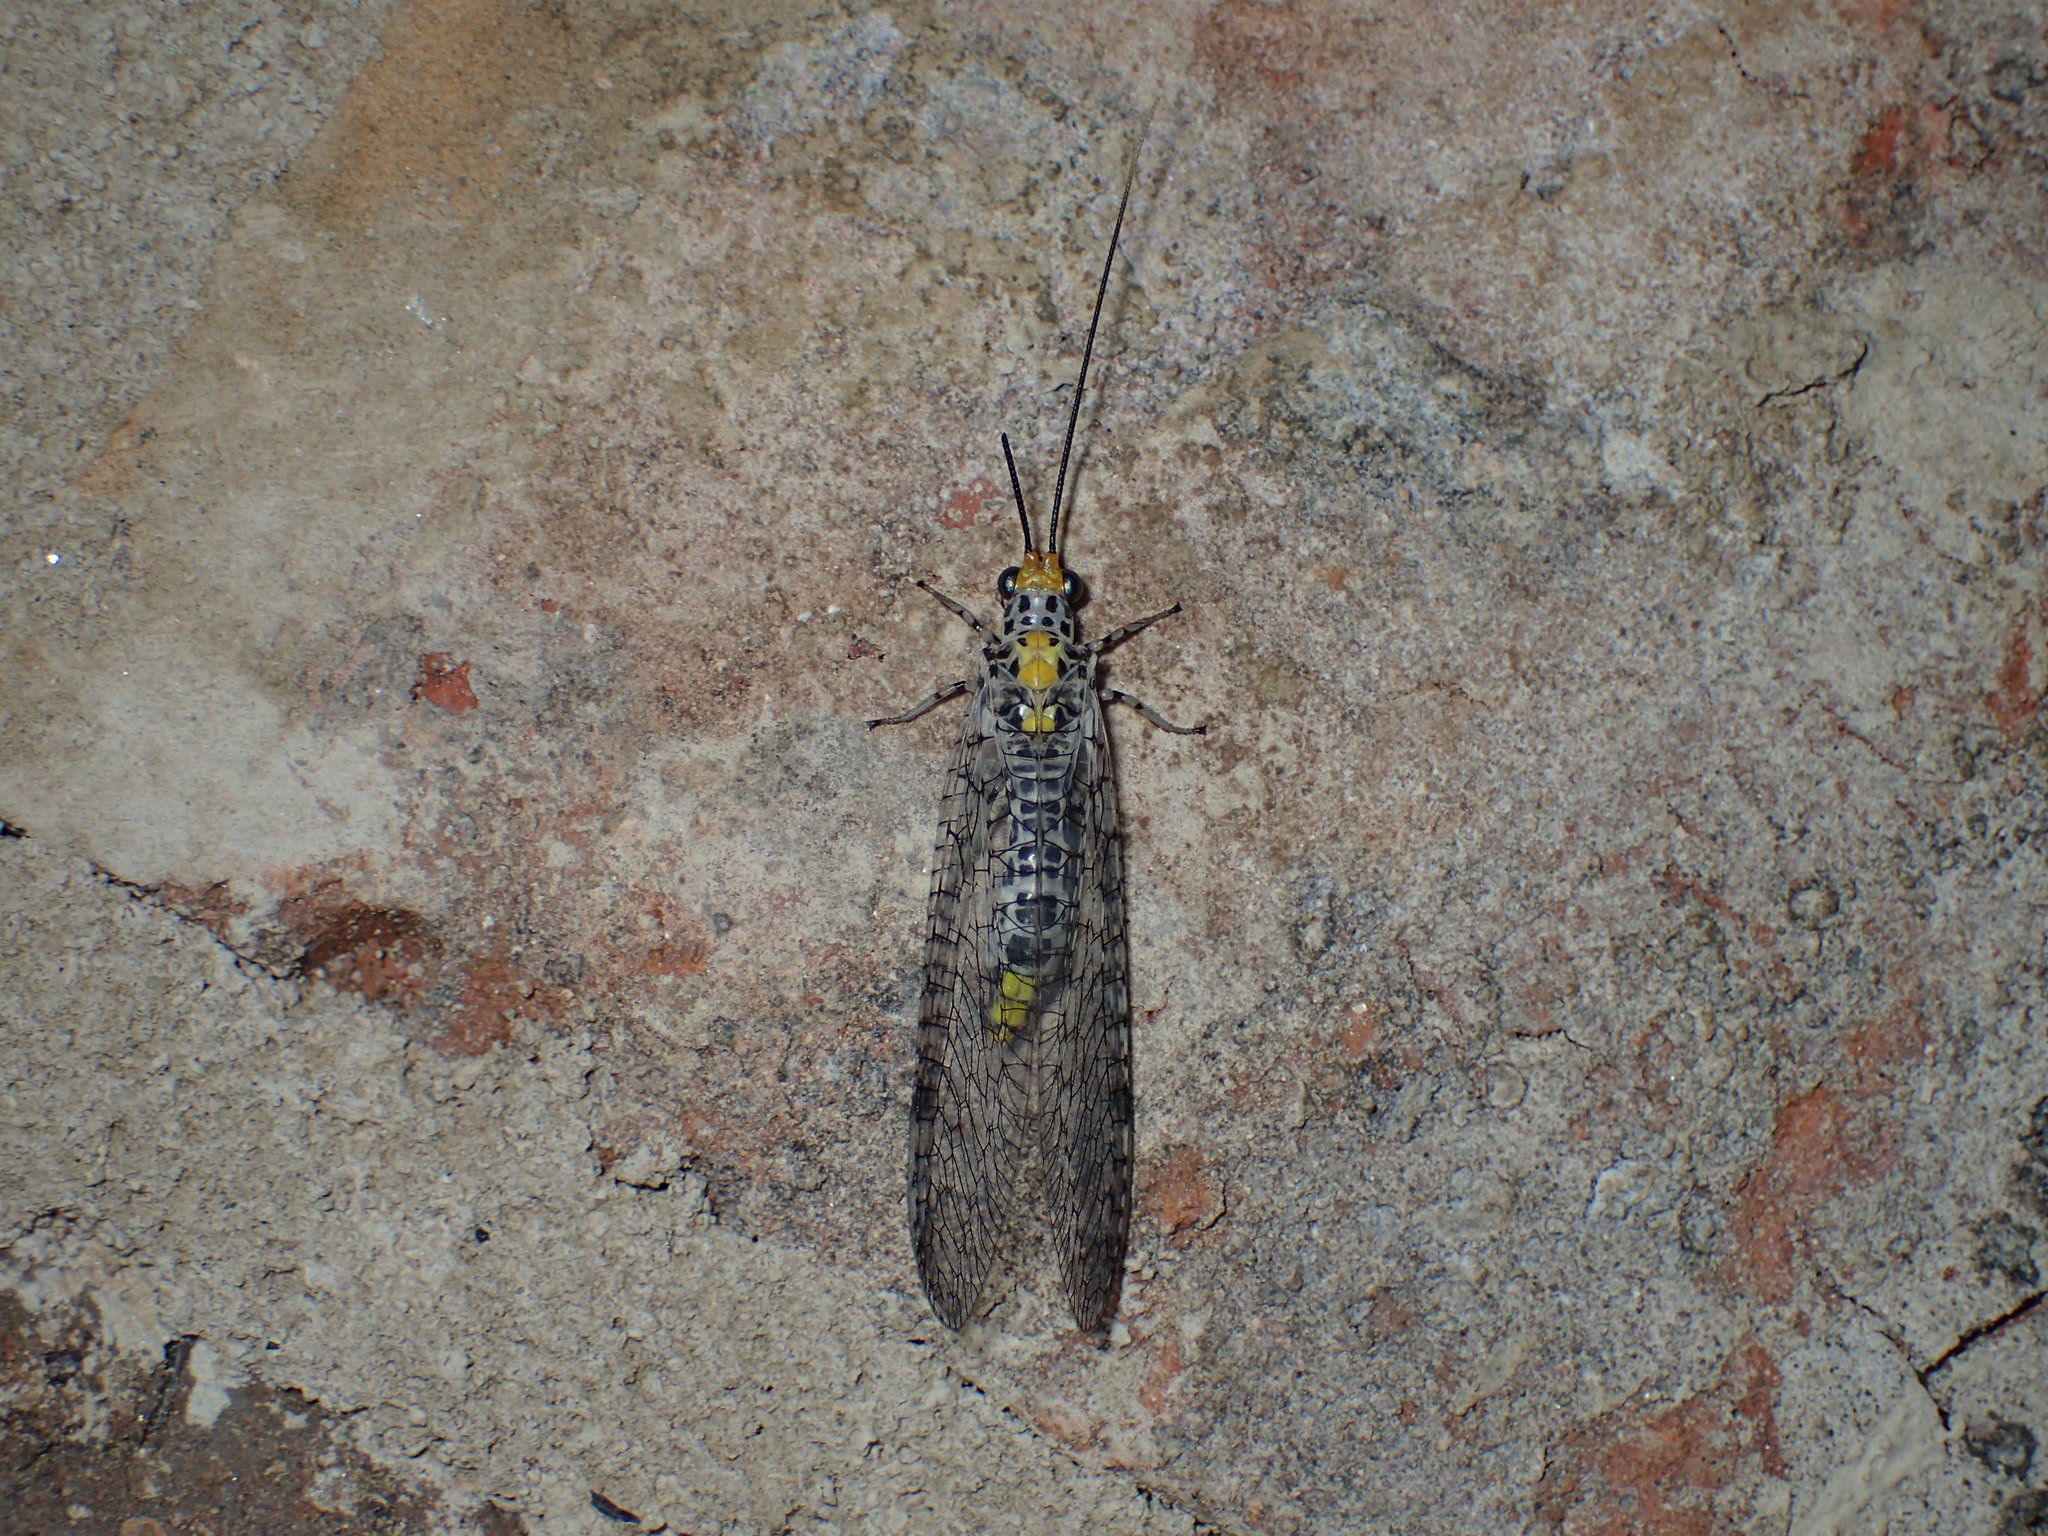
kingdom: Animalia
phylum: Arthropoda
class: Insecta
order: Neuroptera
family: Chrysopidae
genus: Abachrysa
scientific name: Abachrysa eureka
